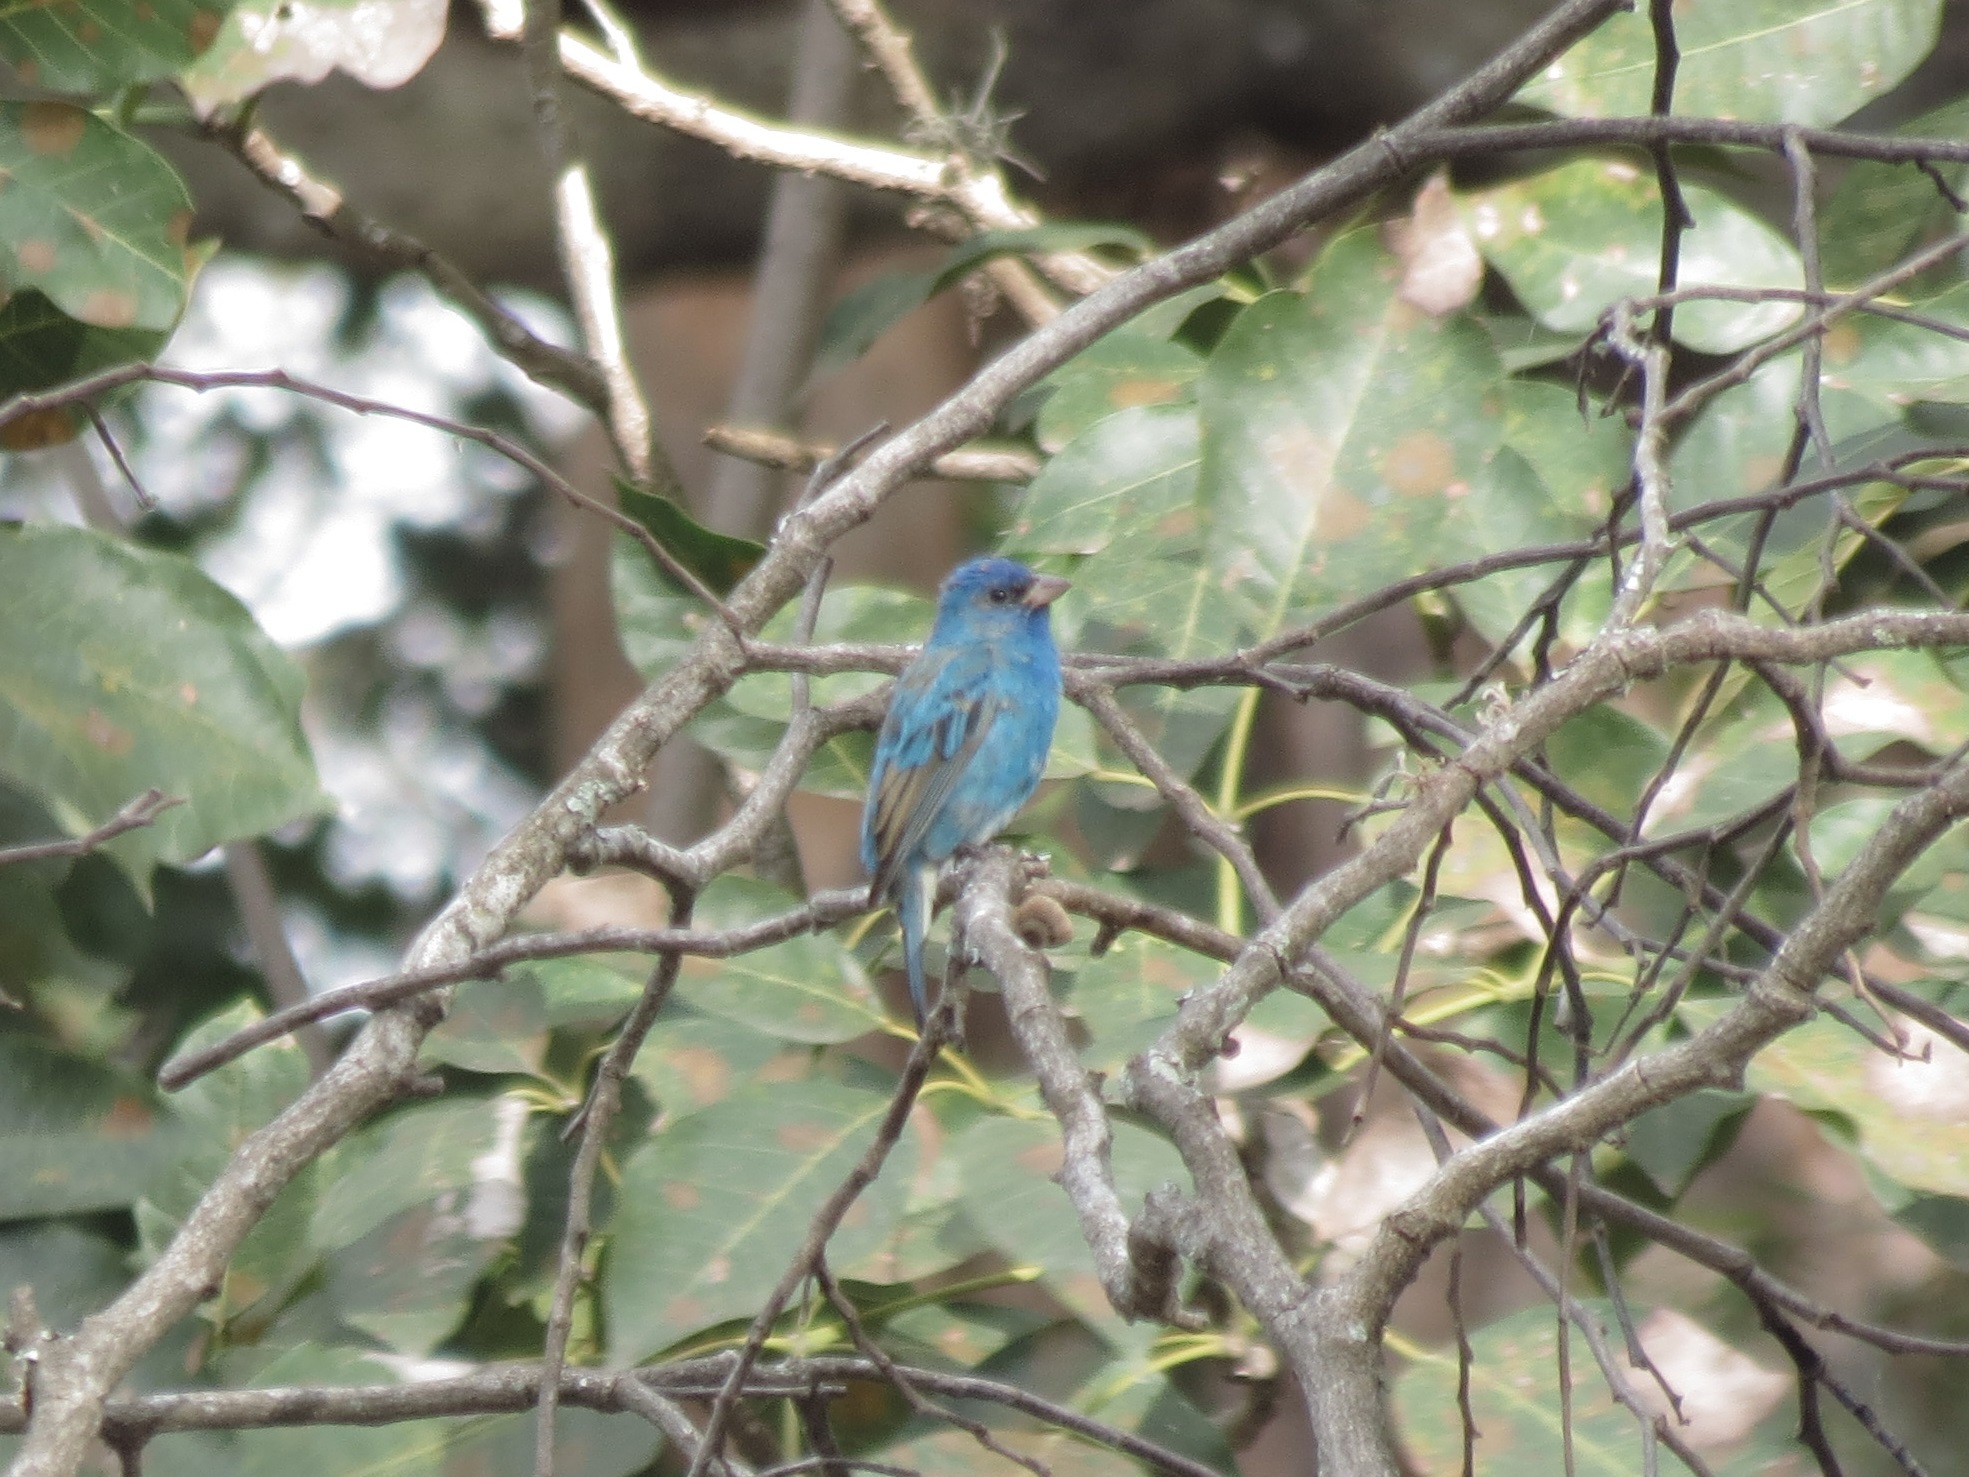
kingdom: Animalia
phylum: Chordata
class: Aves
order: Passeriformes
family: Cardinalidae
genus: Passerina
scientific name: Passerina cyanea
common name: Indigo bunting
